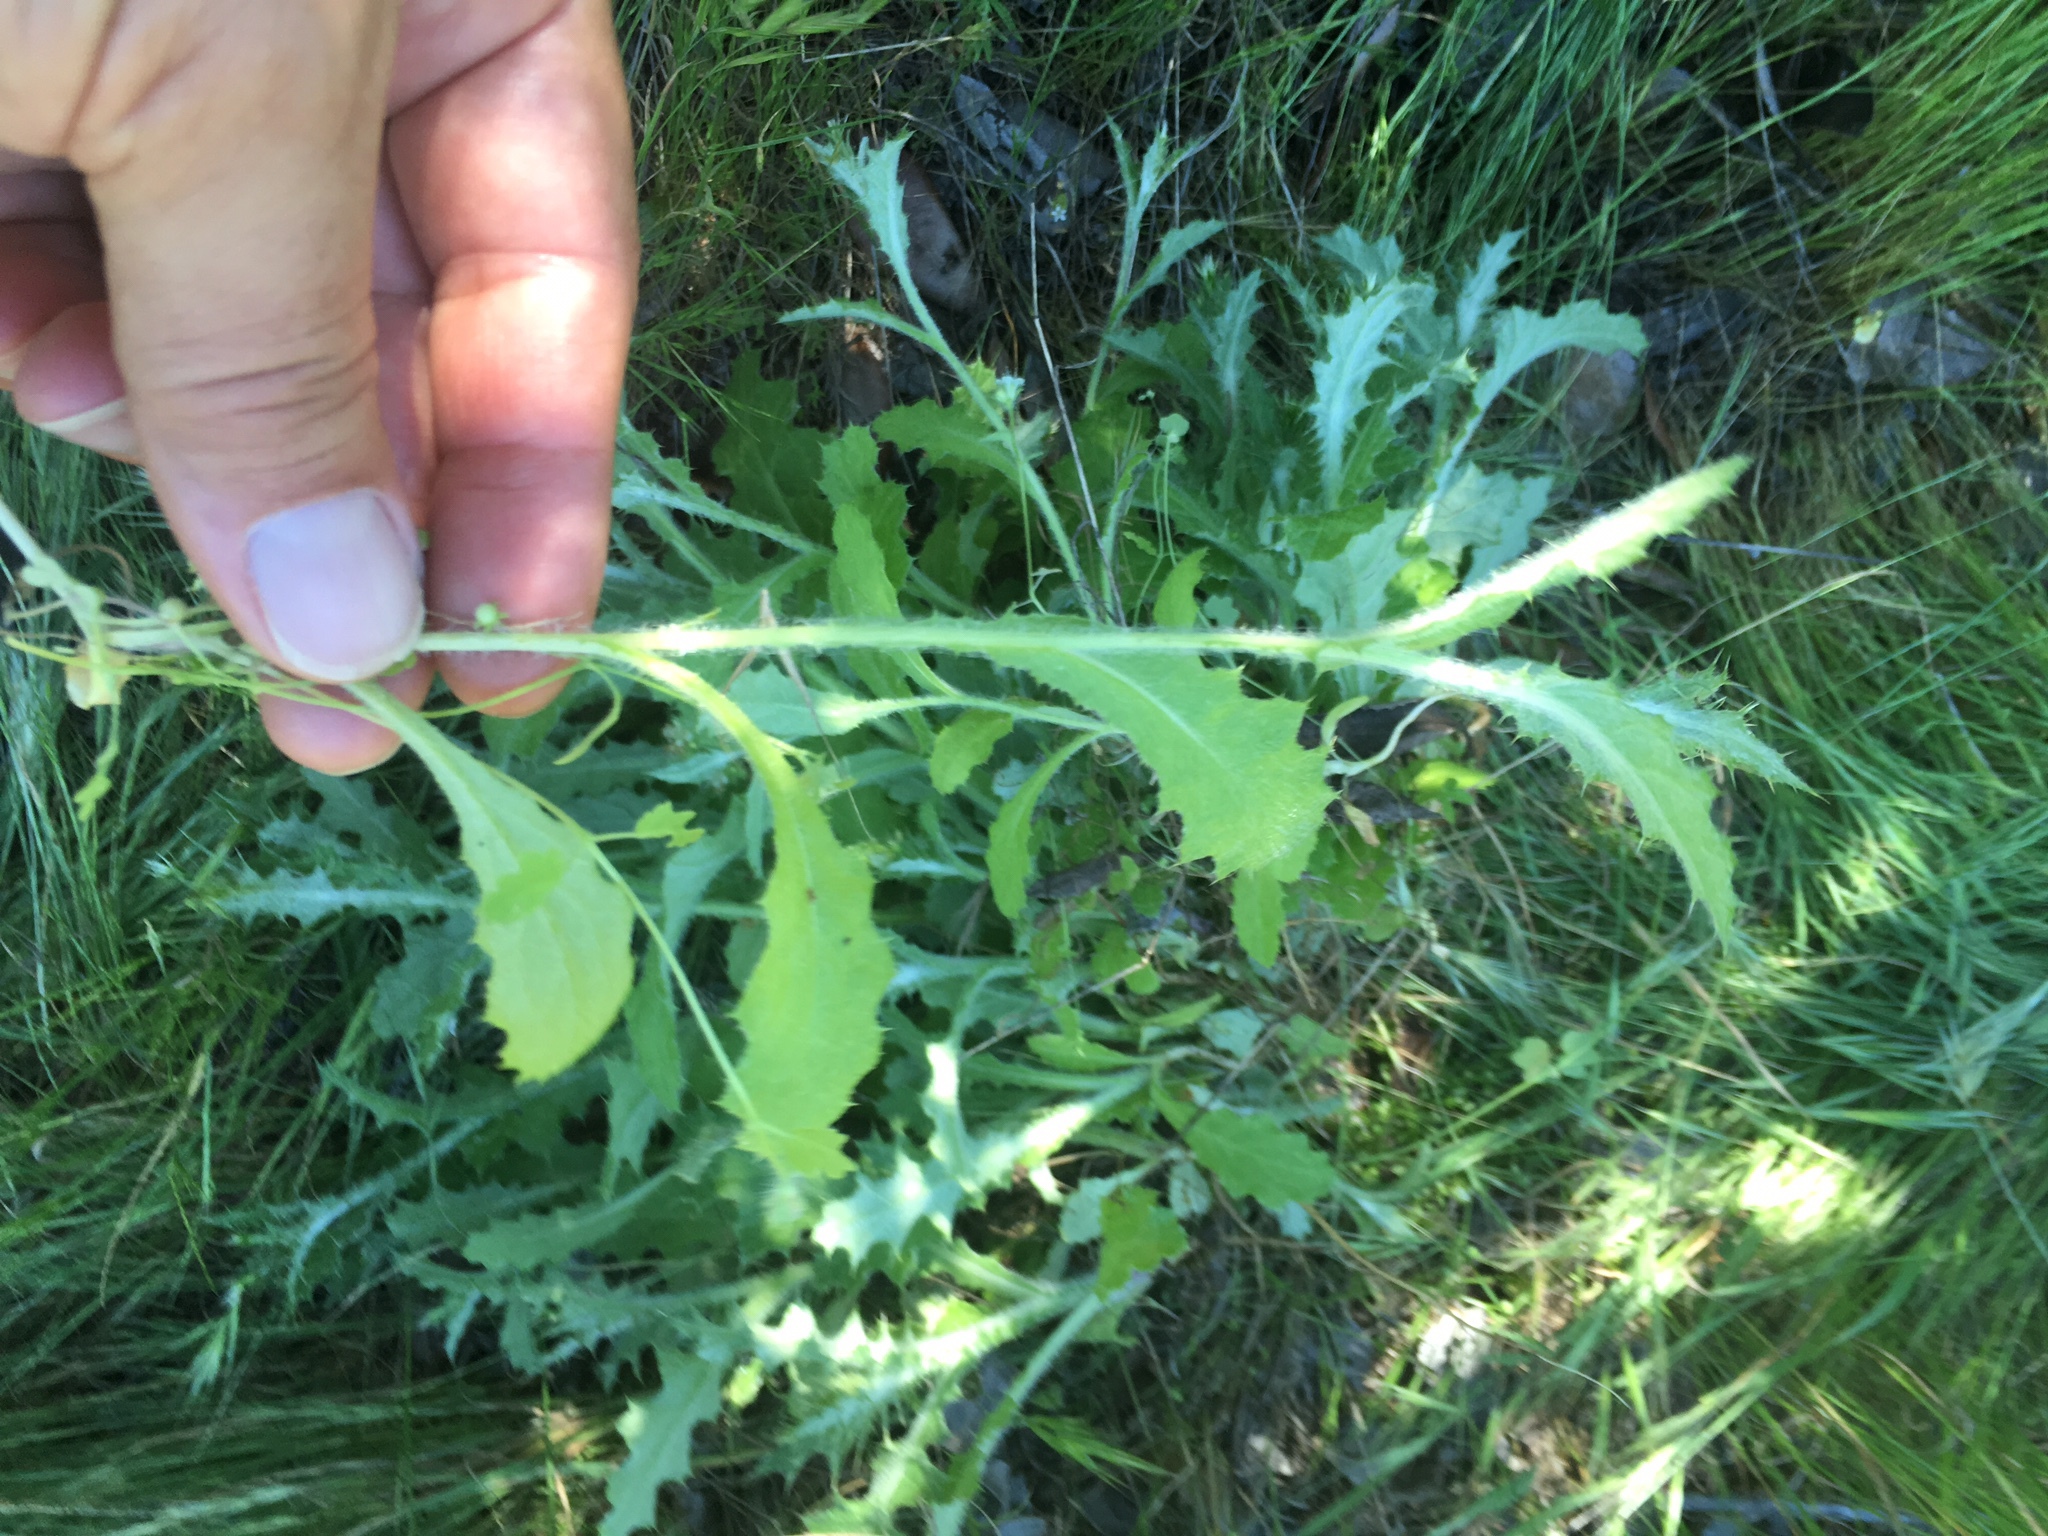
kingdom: Plantae
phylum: Tracheophyta
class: Magnoliopsida
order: Asterales
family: Asteraceae
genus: Carduus
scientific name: Carduus pycnocephalus
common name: Plymouth thistle
